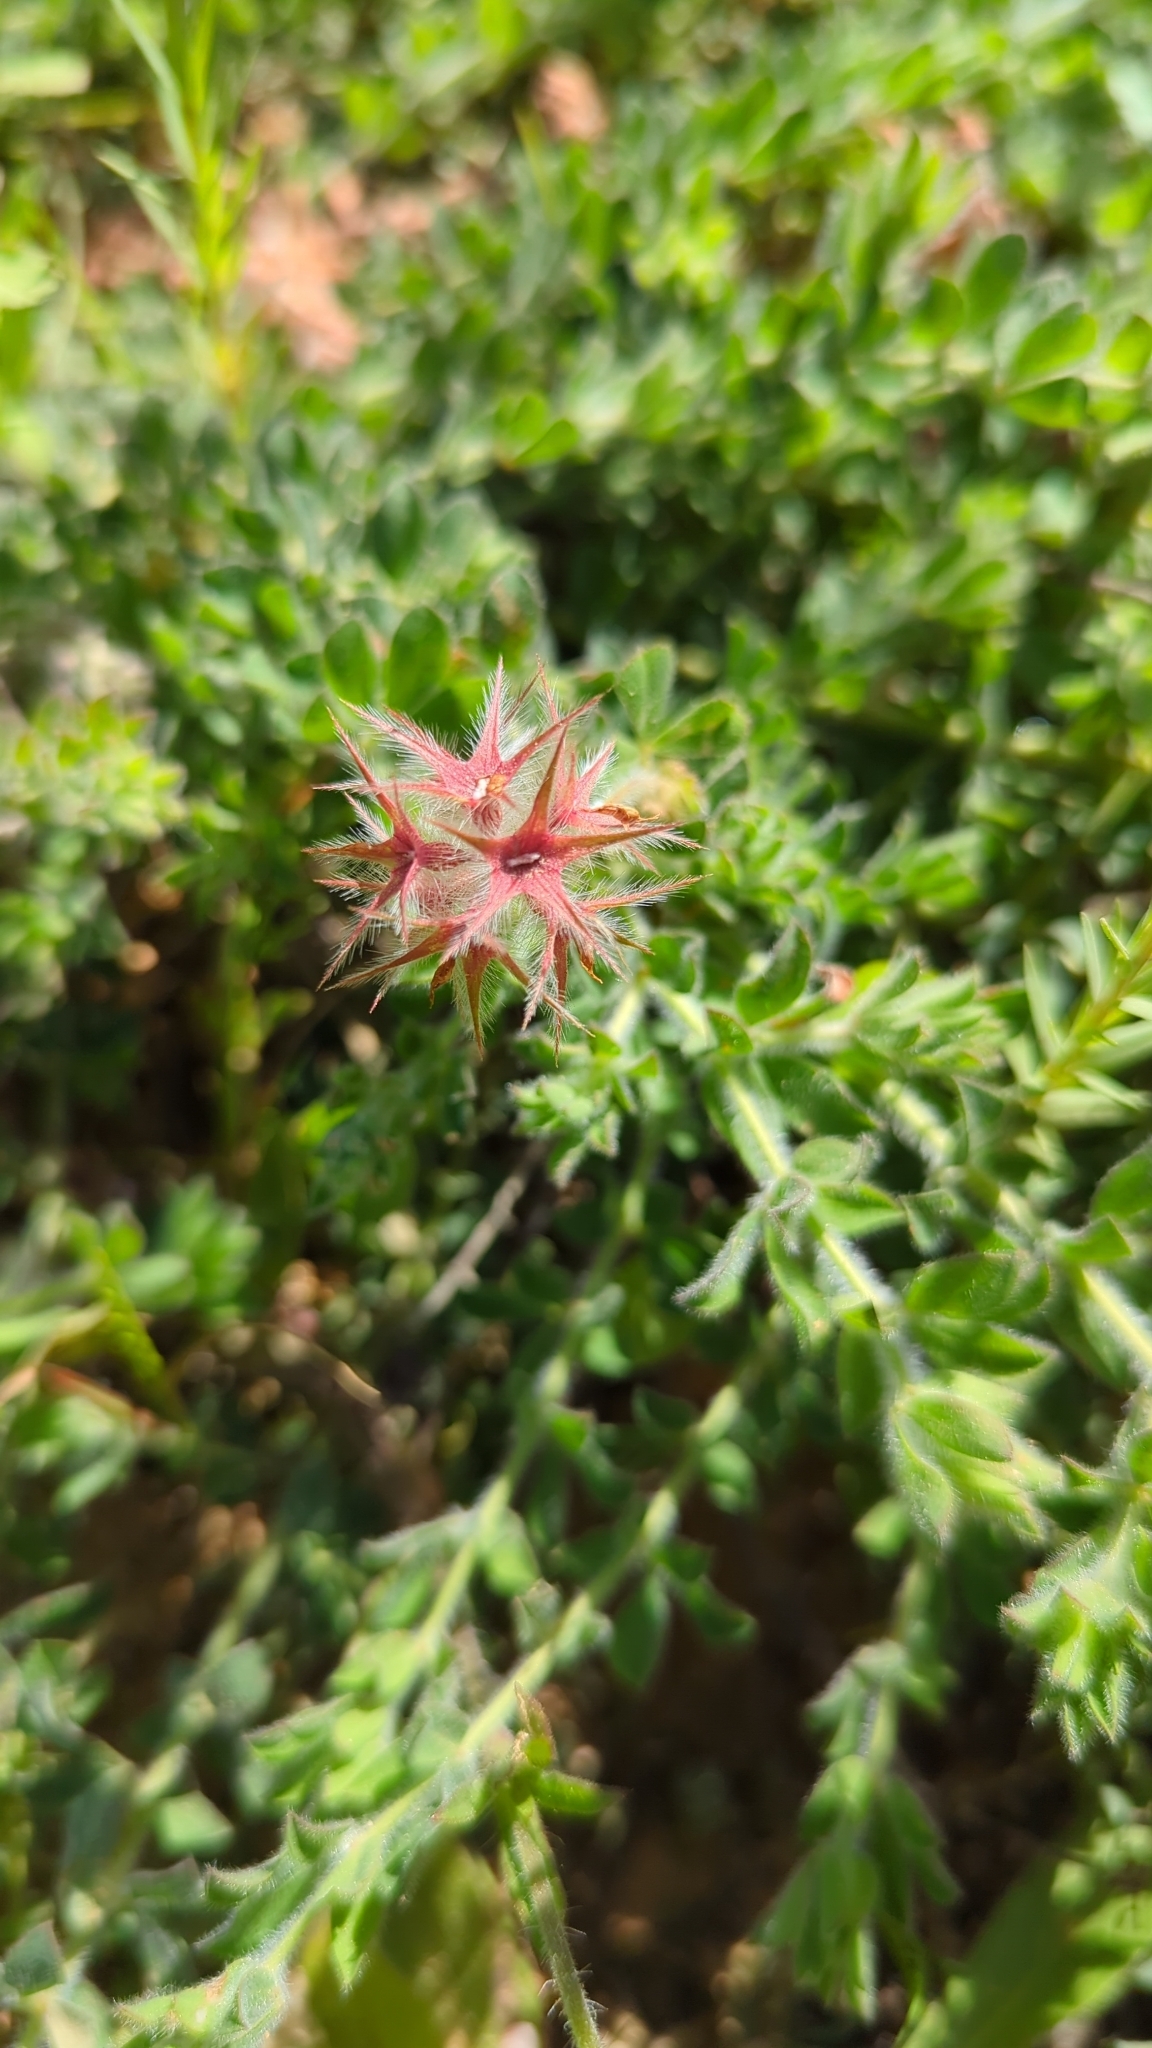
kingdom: Plantae
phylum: Tracheophyta
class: Magnoliopsida
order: Fabales
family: Fabaceae
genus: Trifolium
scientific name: Trifolium stellatum
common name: Starry clover
